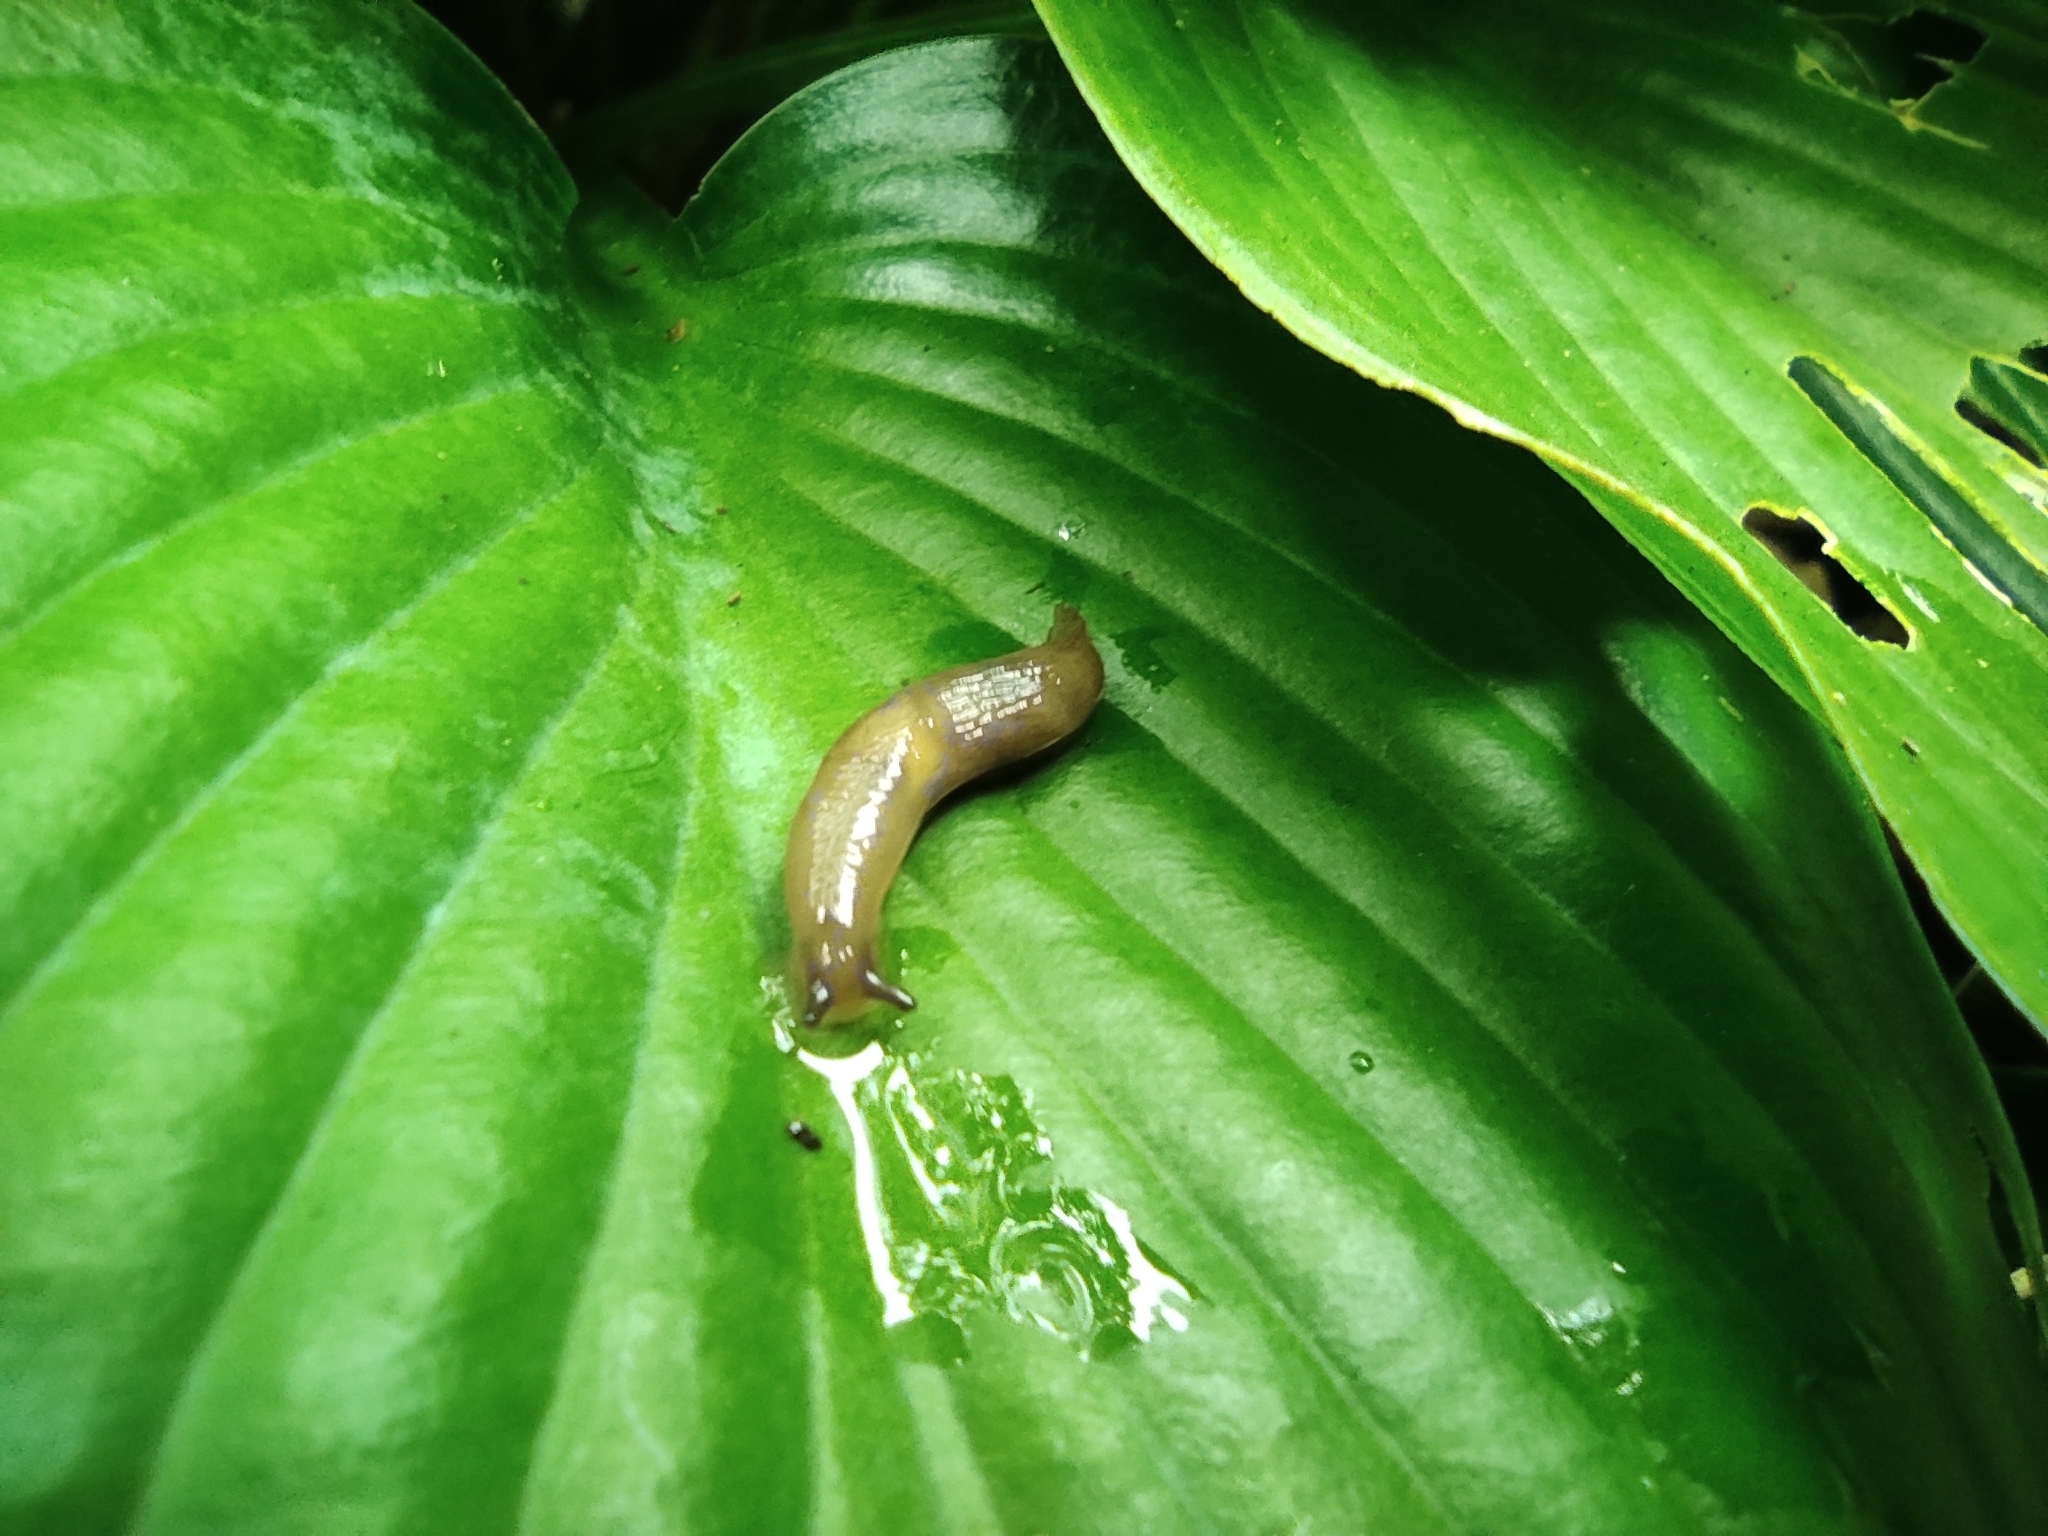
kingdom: Animalia
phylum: Mollusca
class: Gastropoda
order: Stylommatophora
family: Agriolimacidae
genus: Deroceras
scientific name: Deroceras invadens
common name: Caruana's slug
